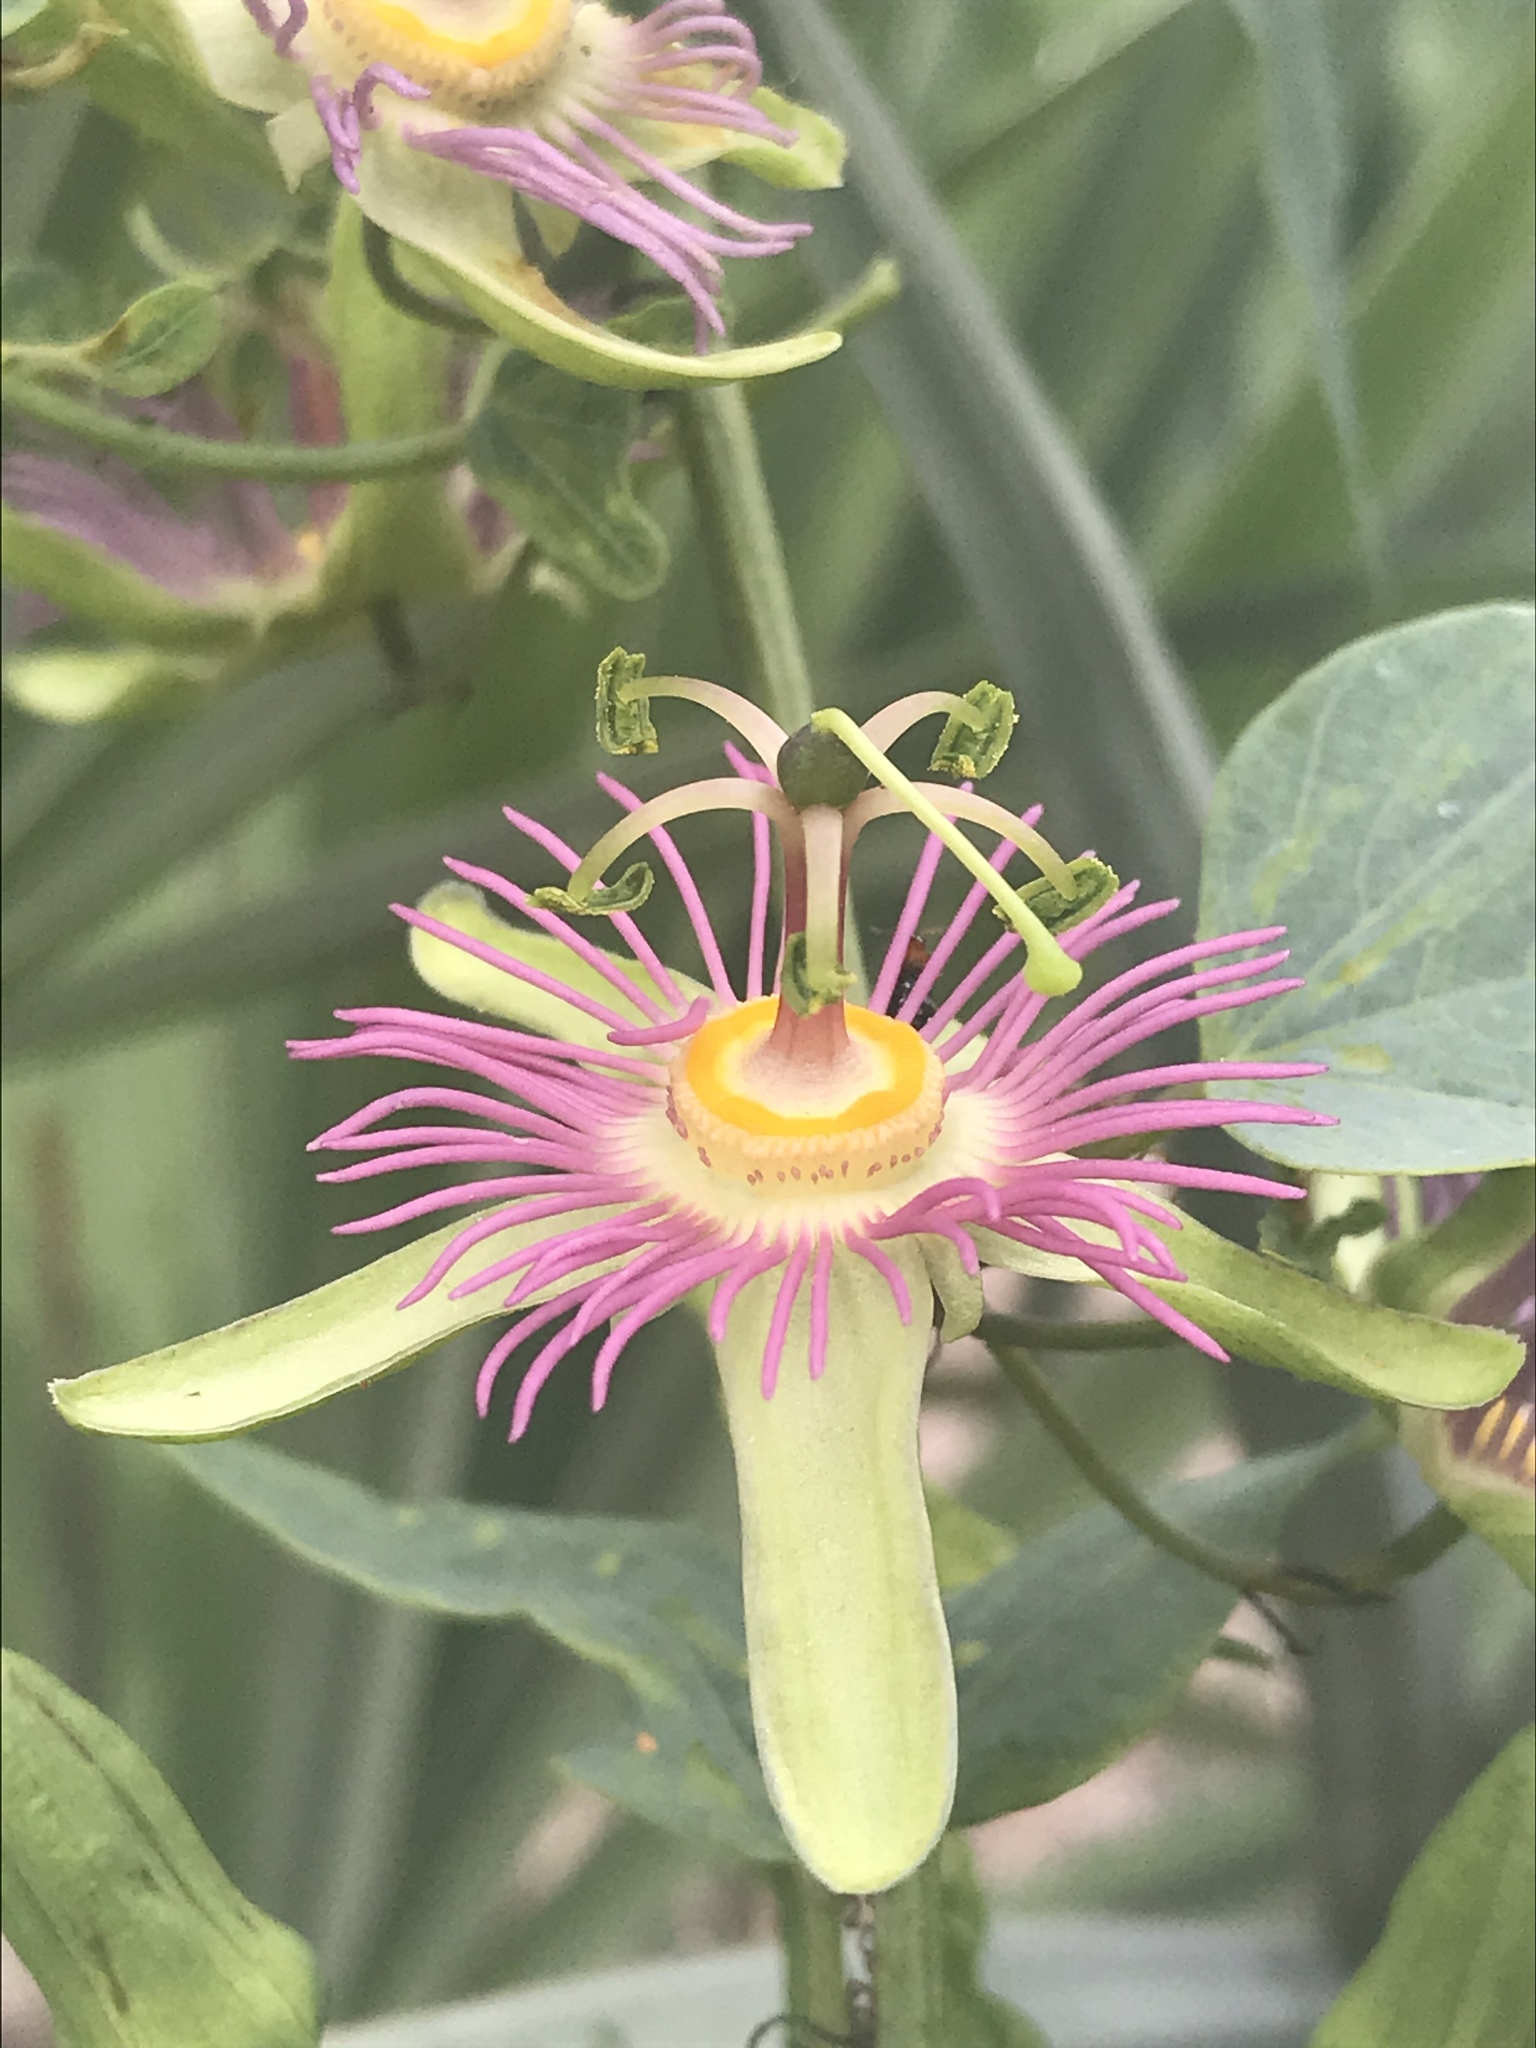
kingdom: Plantae
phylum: Tracheophyta
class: Magnoliopsida
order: Malpighiales
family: Passifloraceae
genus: Passiflora
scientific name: Passiflora mexicana
